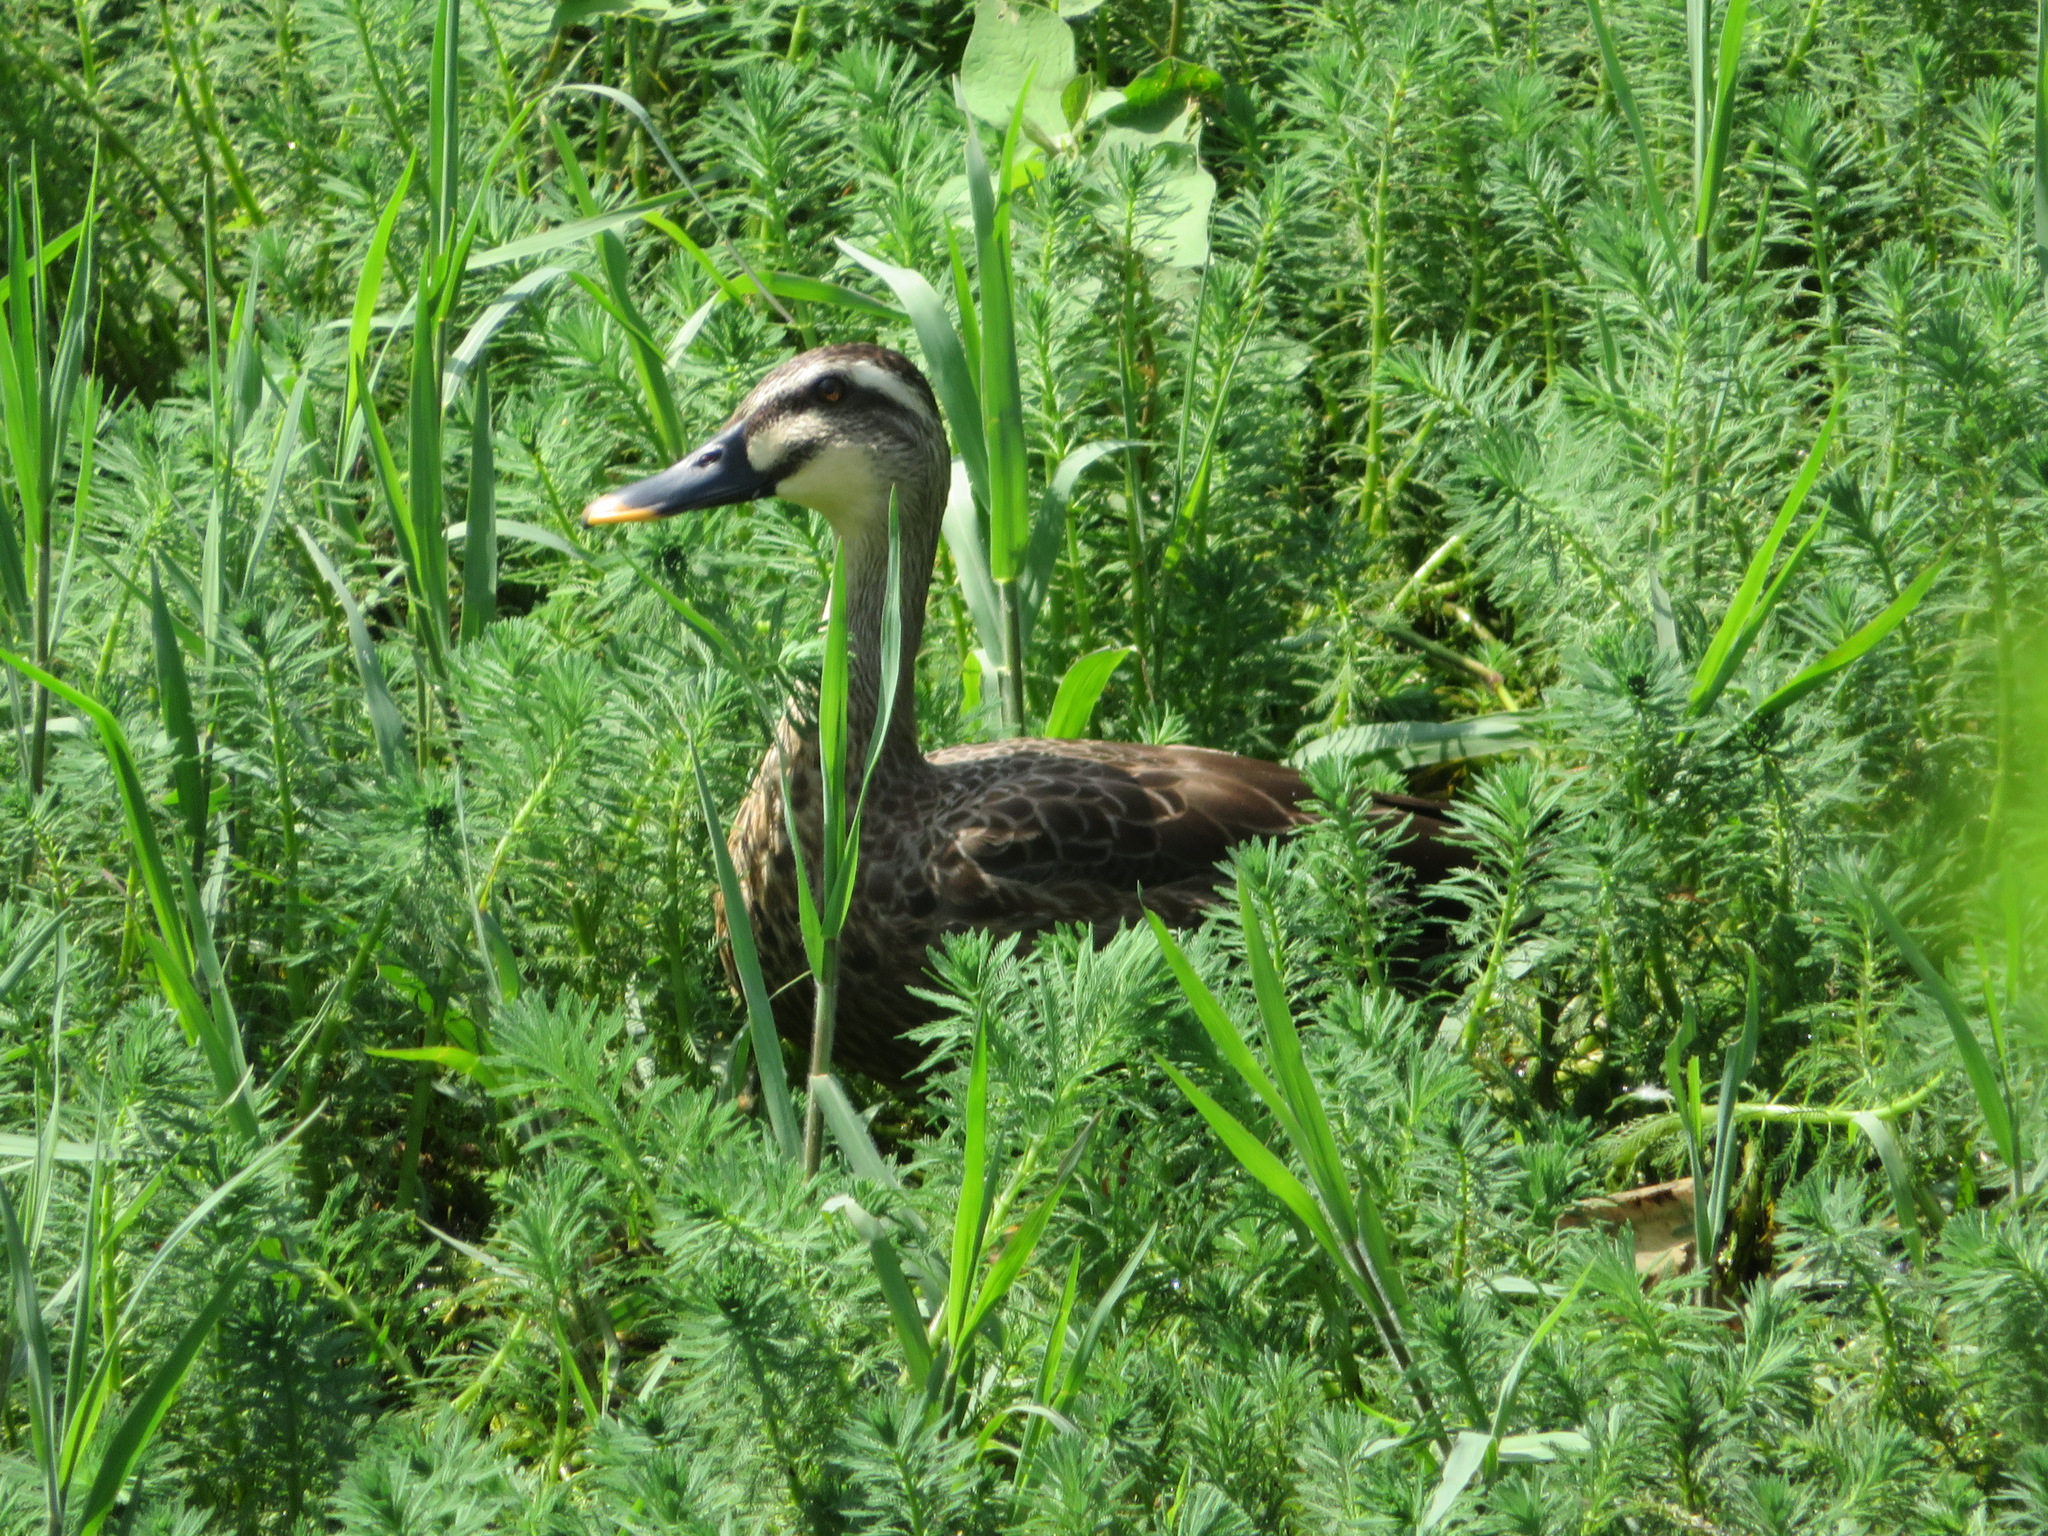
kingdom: Animalia
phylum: Chordata
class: Aves
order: Anseriformes
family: Anatidae
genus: Anas
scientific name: Anas zonorhyncha
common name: Eastern spot-billed duck
